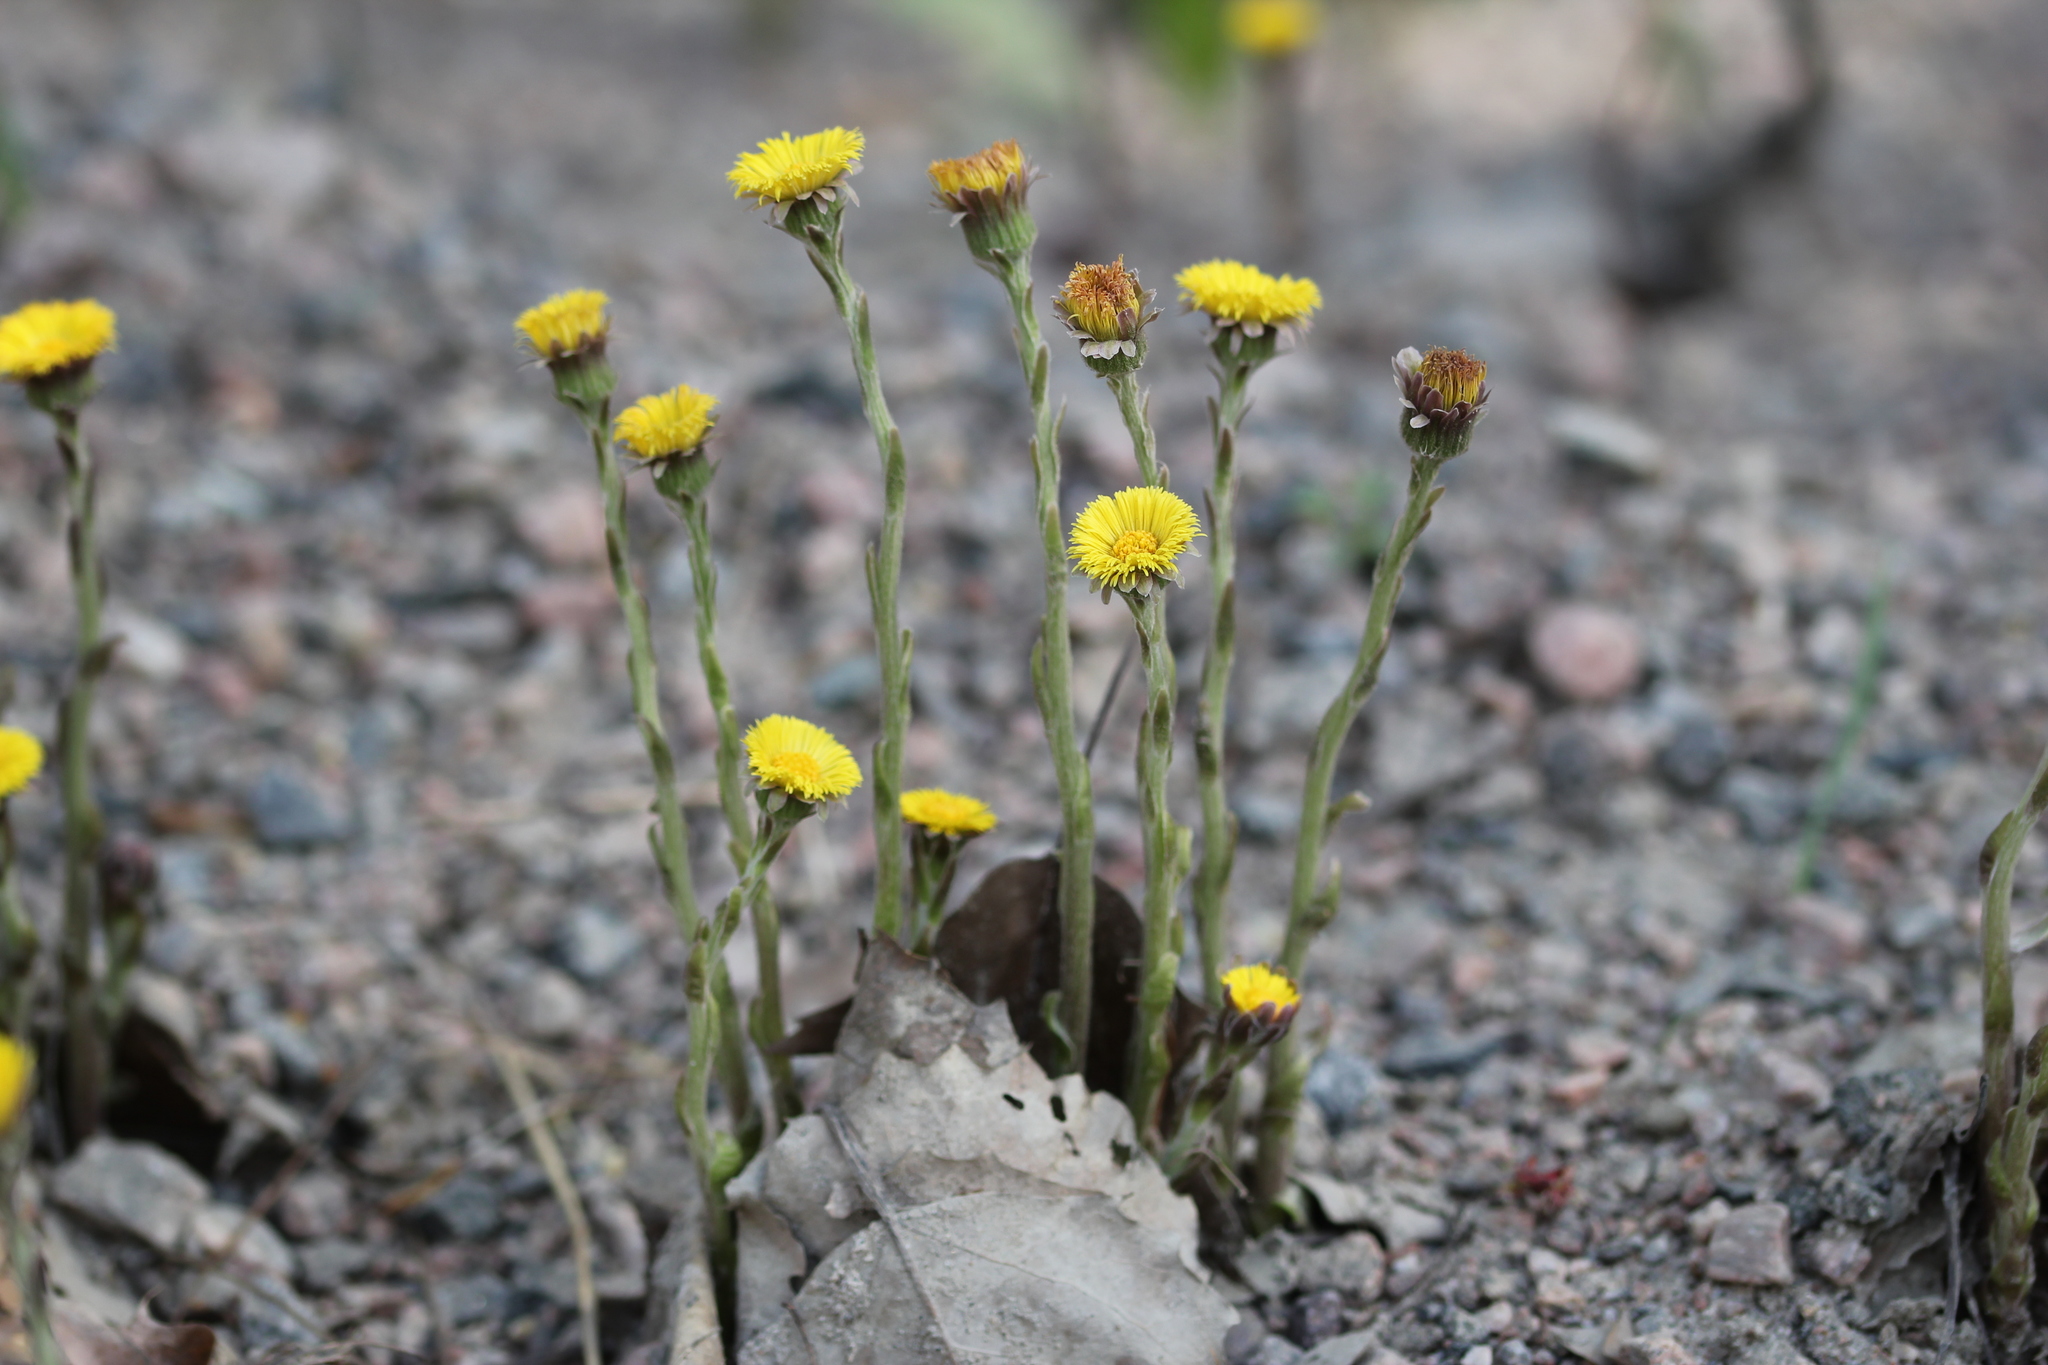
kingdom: Plantae
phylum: Tracheophyta
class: Magnoliopsida
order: Asterales
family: Asteraceae
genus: Tussilago
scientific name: Tussilago farfara
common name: Coltsfoot
